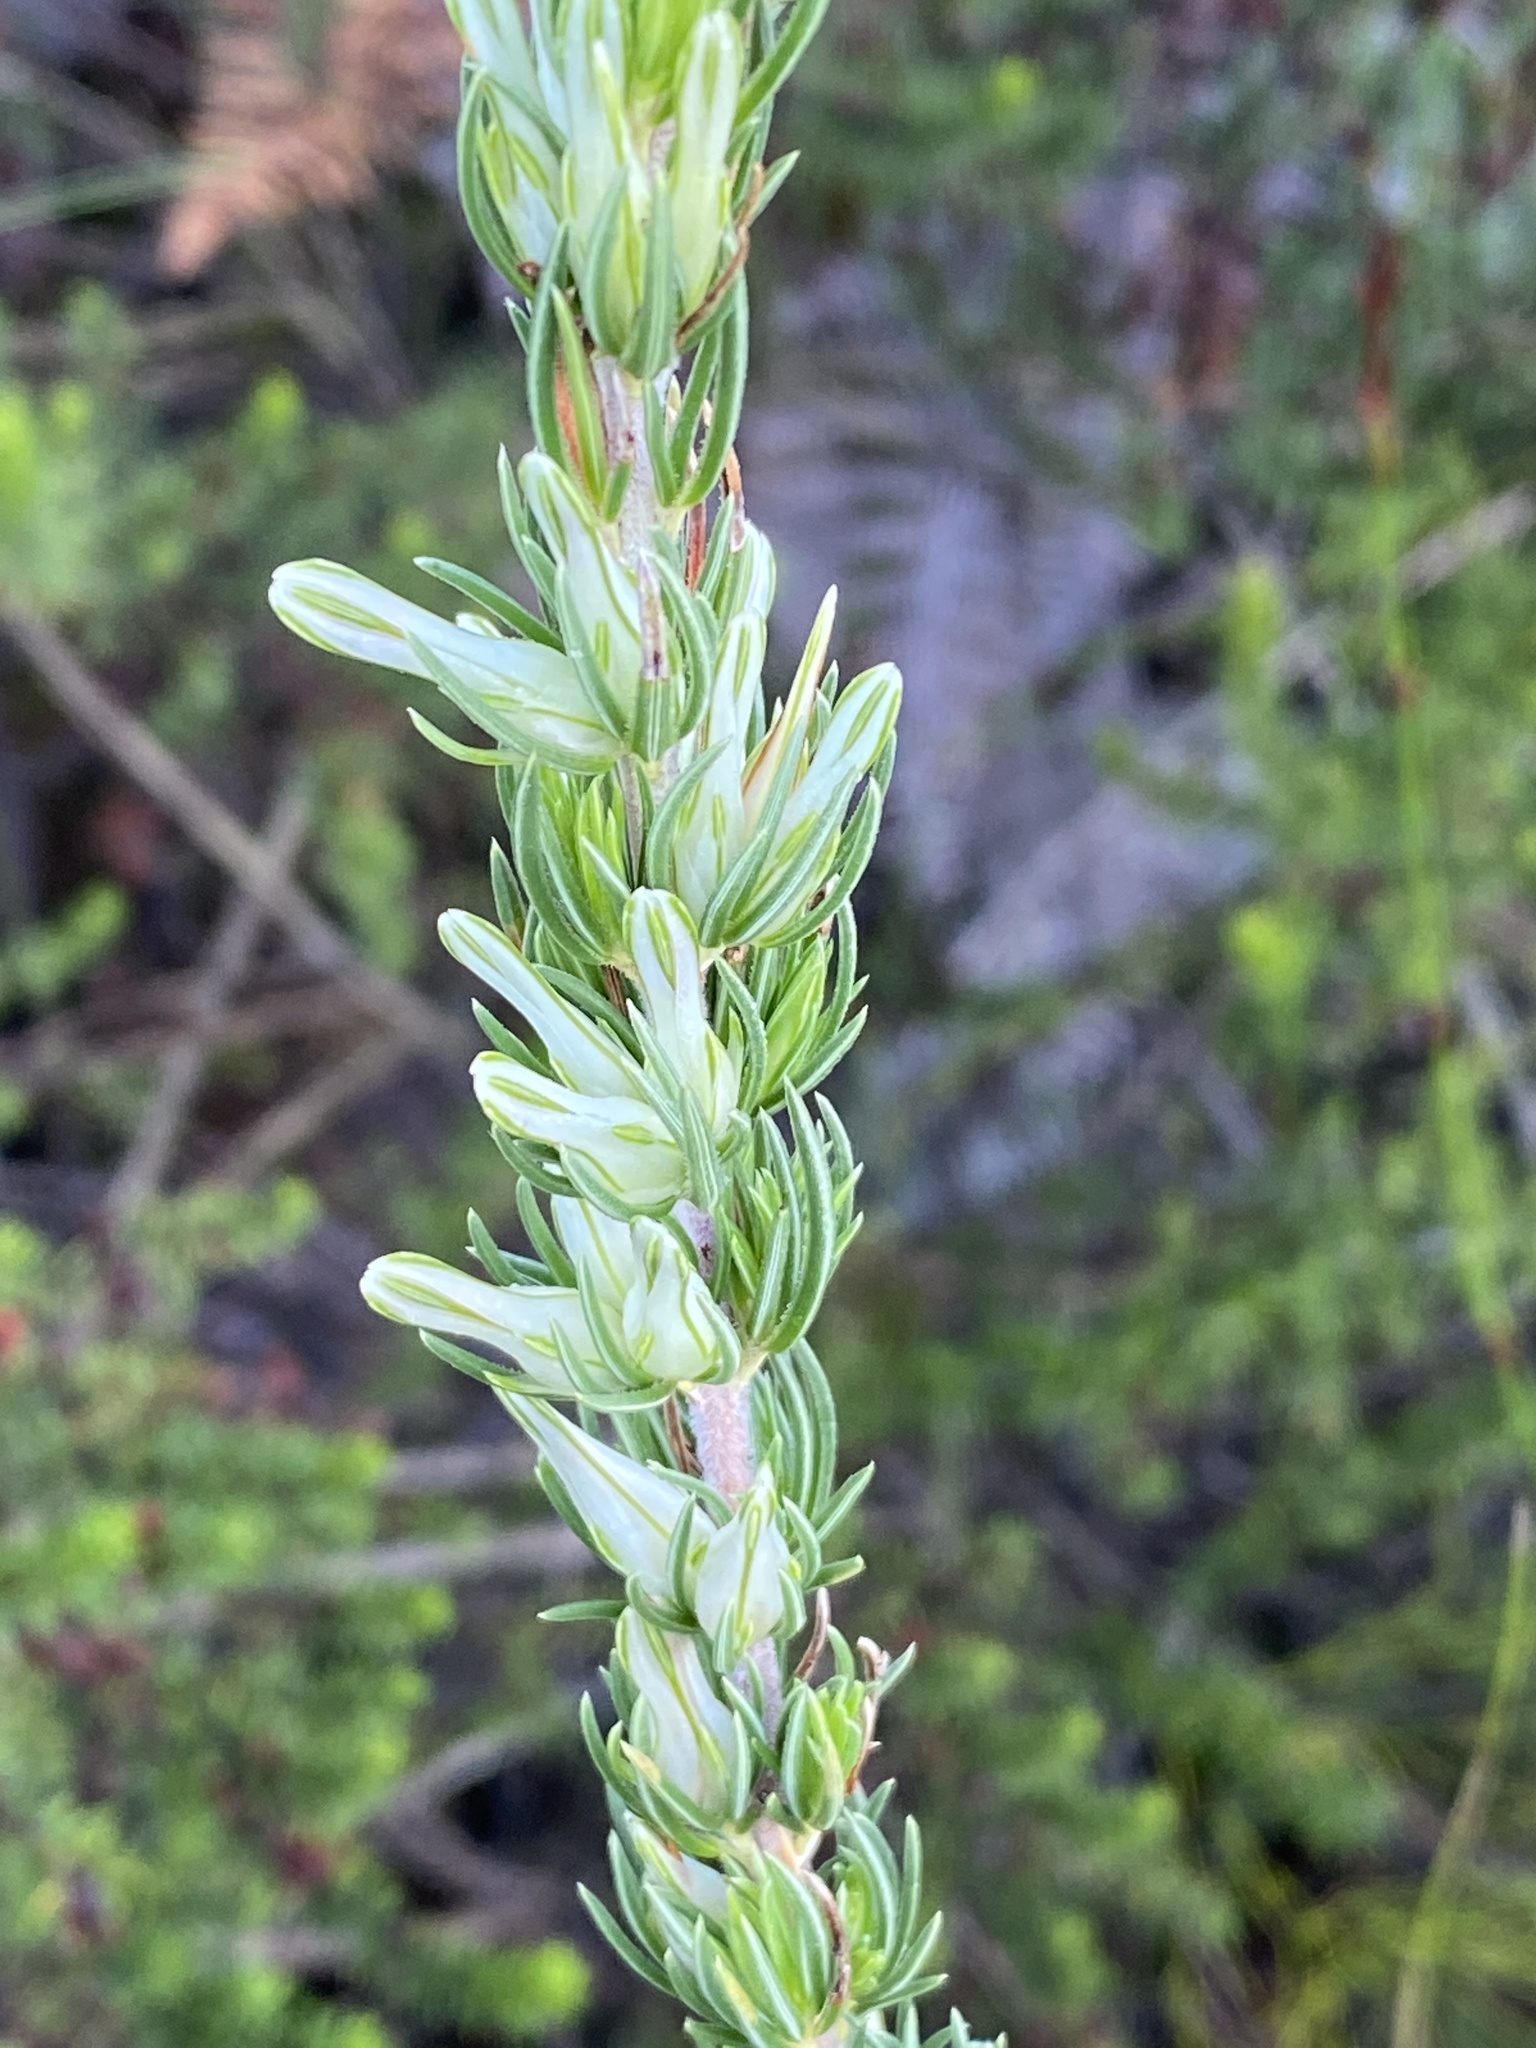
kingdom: Plantae
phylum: Tracheophyta
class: Magnoliopsida
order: Ericales
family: Ericaceae
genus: Erica
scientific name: Erica nabea
